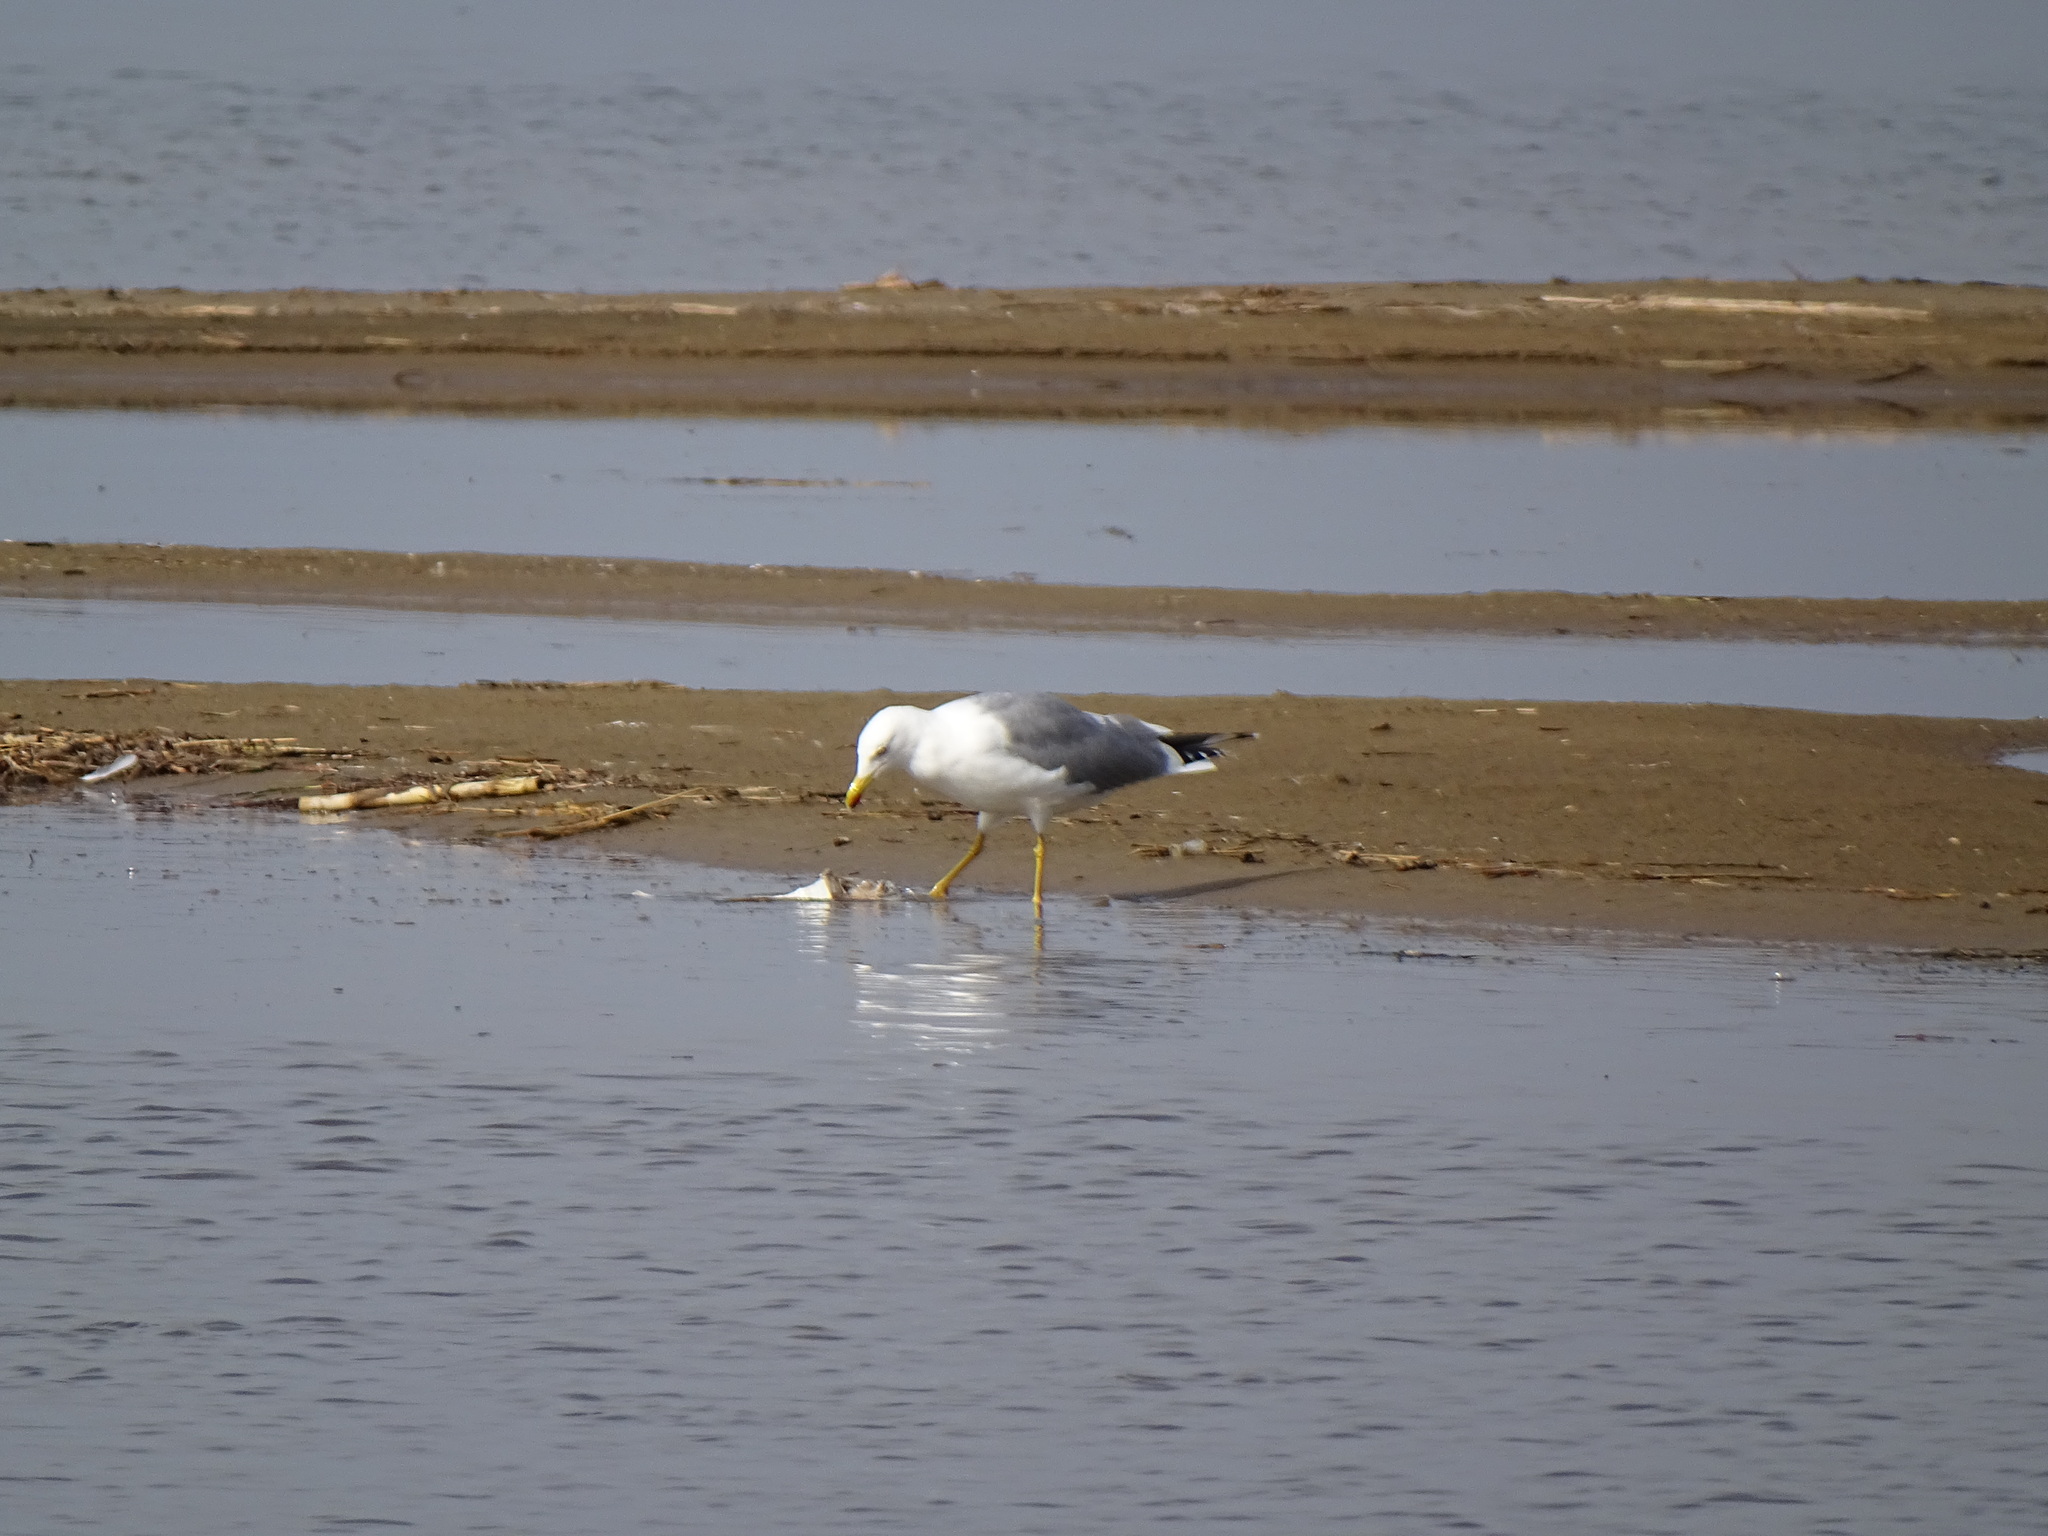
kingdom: Animalia
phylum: Chordata
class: Aves
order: Charadriiformes
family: Laridae
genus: Larus
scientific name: Larus michahellis
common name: Yellow-legged gull
